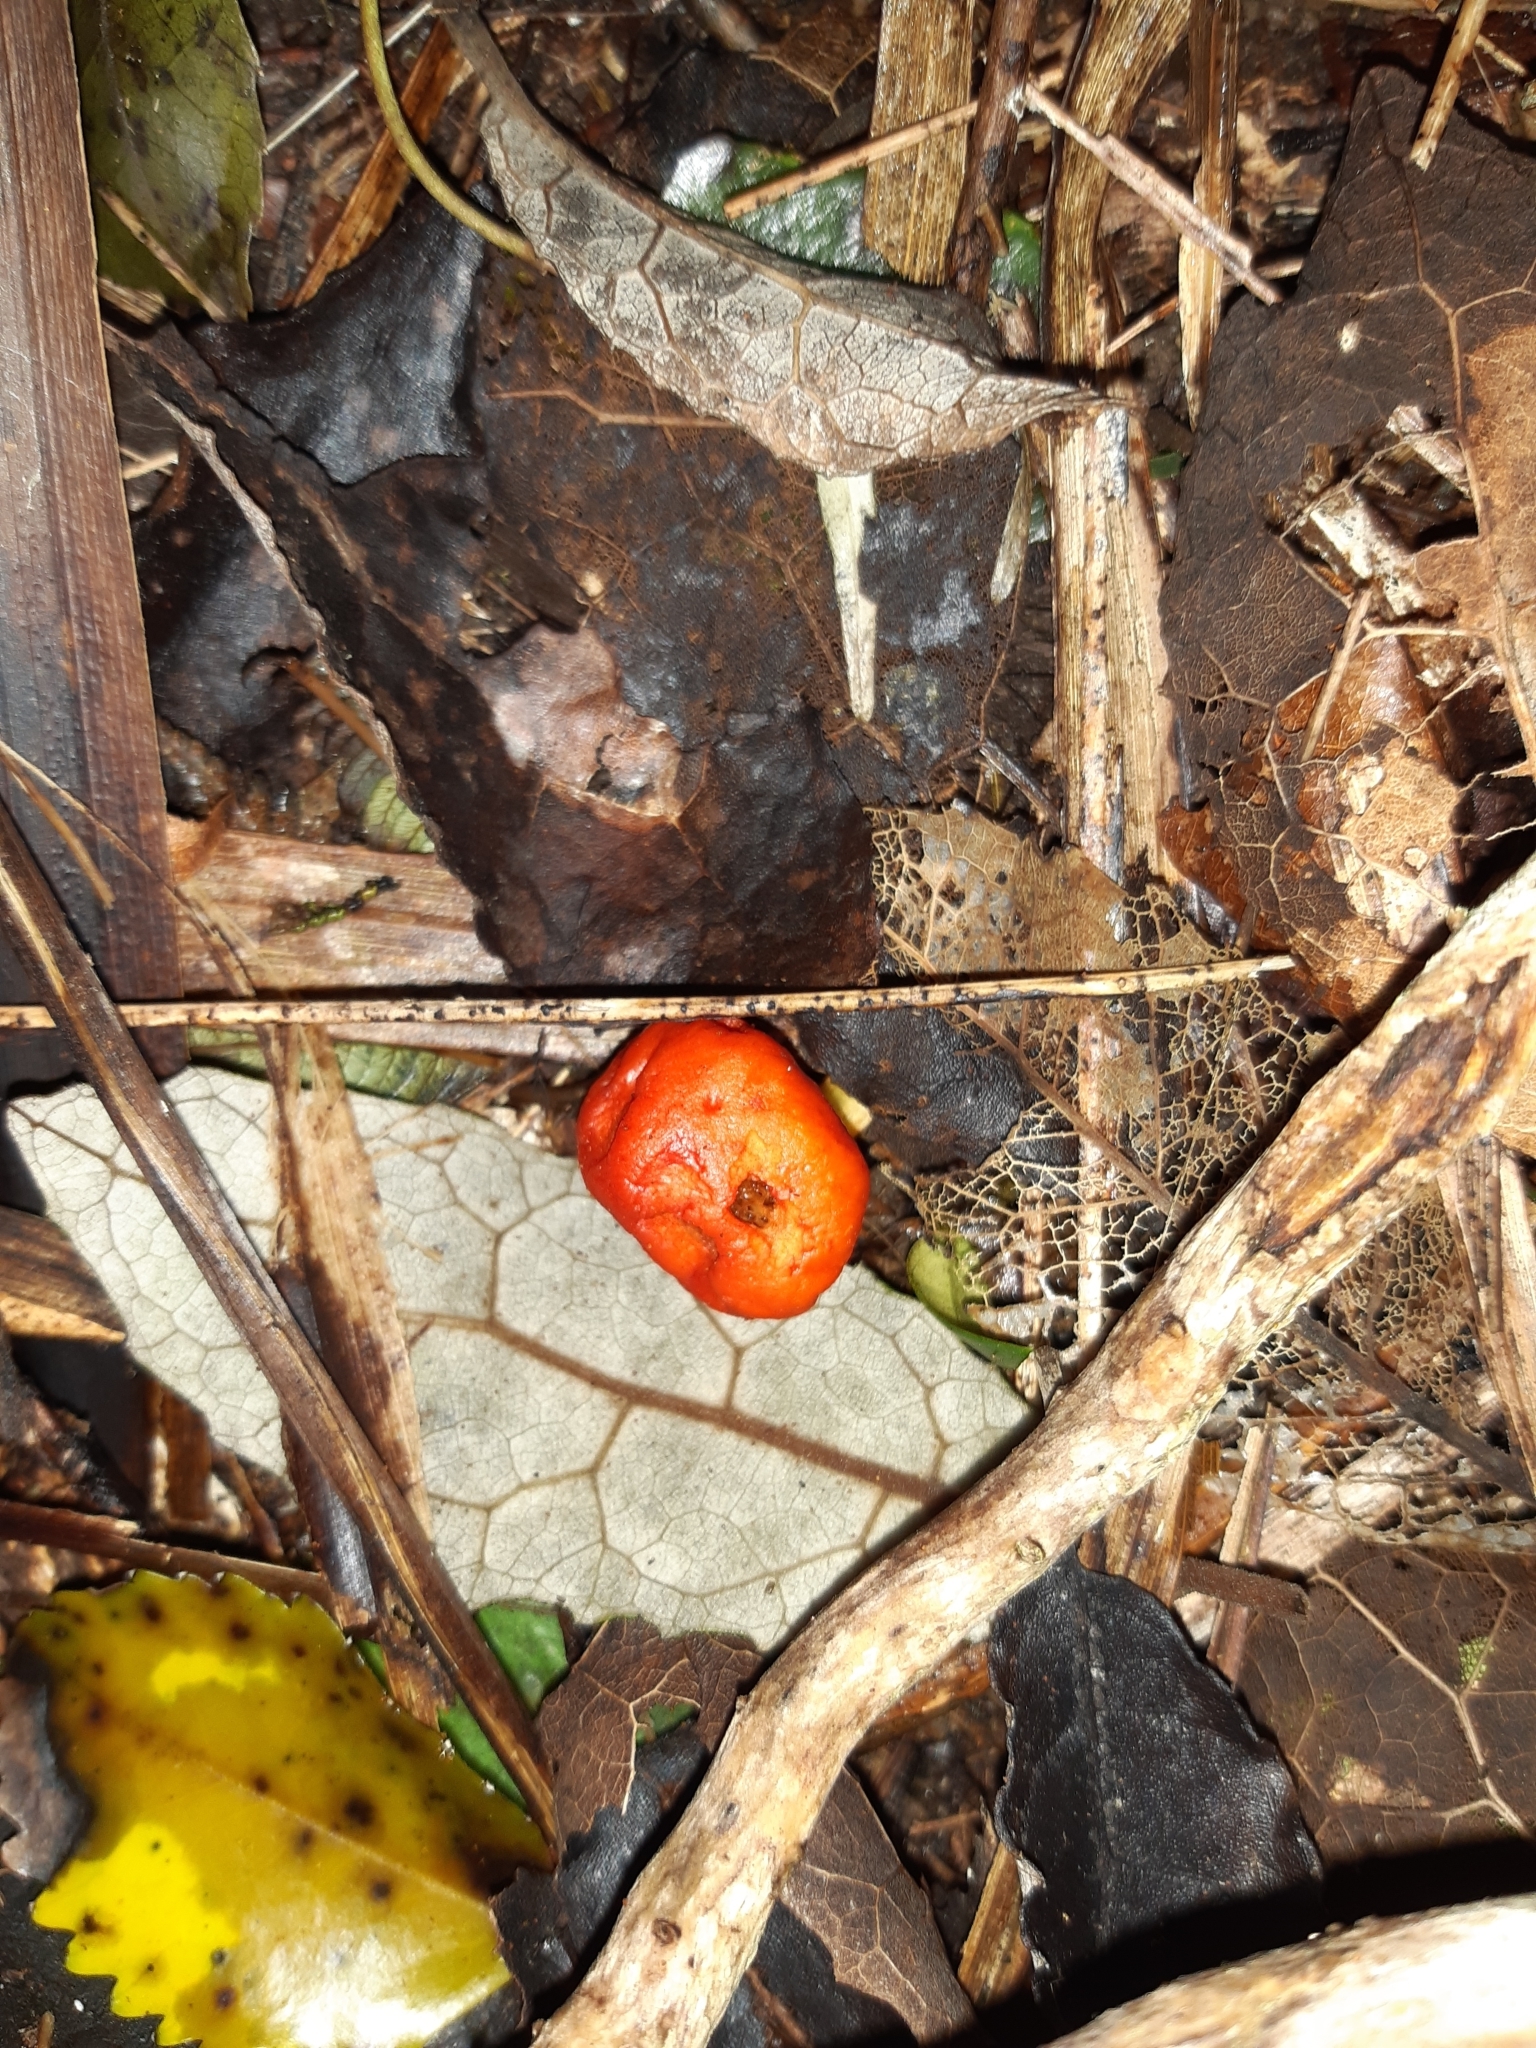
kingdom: Fungi
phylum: Basidiomycota
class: Agaricomycetes
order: Agaricales
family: Strophariaceae
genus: Leratiomyces
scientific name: Leratiomyces erythrocephalus
